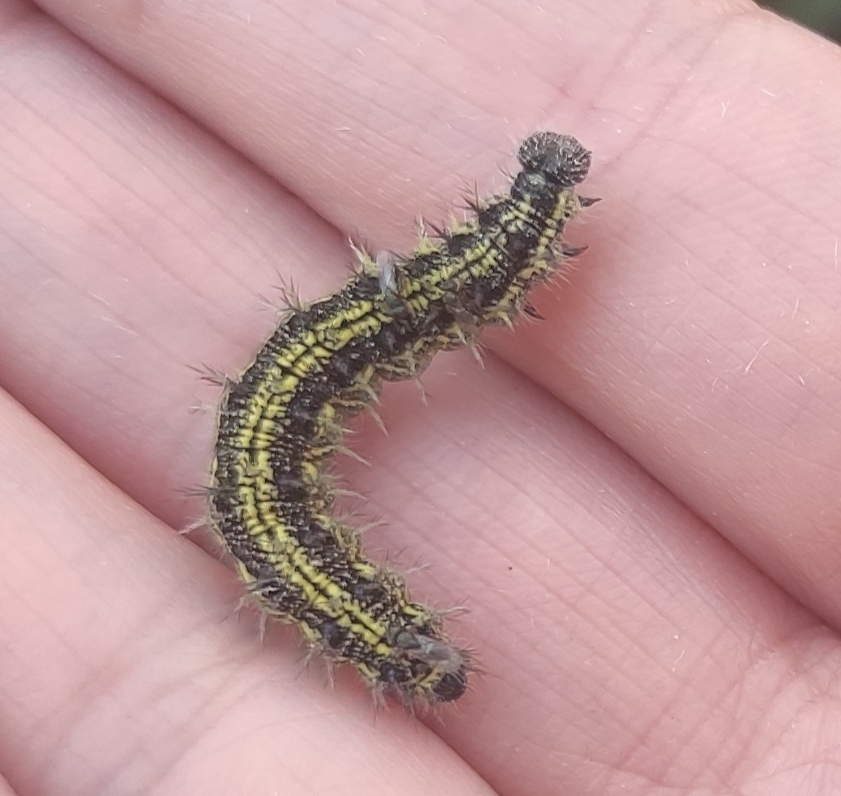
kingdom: Animalia
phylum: Arthropoda
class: Insecta
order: Lepidoptera
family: Nymphalidae
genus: Aglais
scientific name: Aglais urticae
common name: Small tortoiseshell
